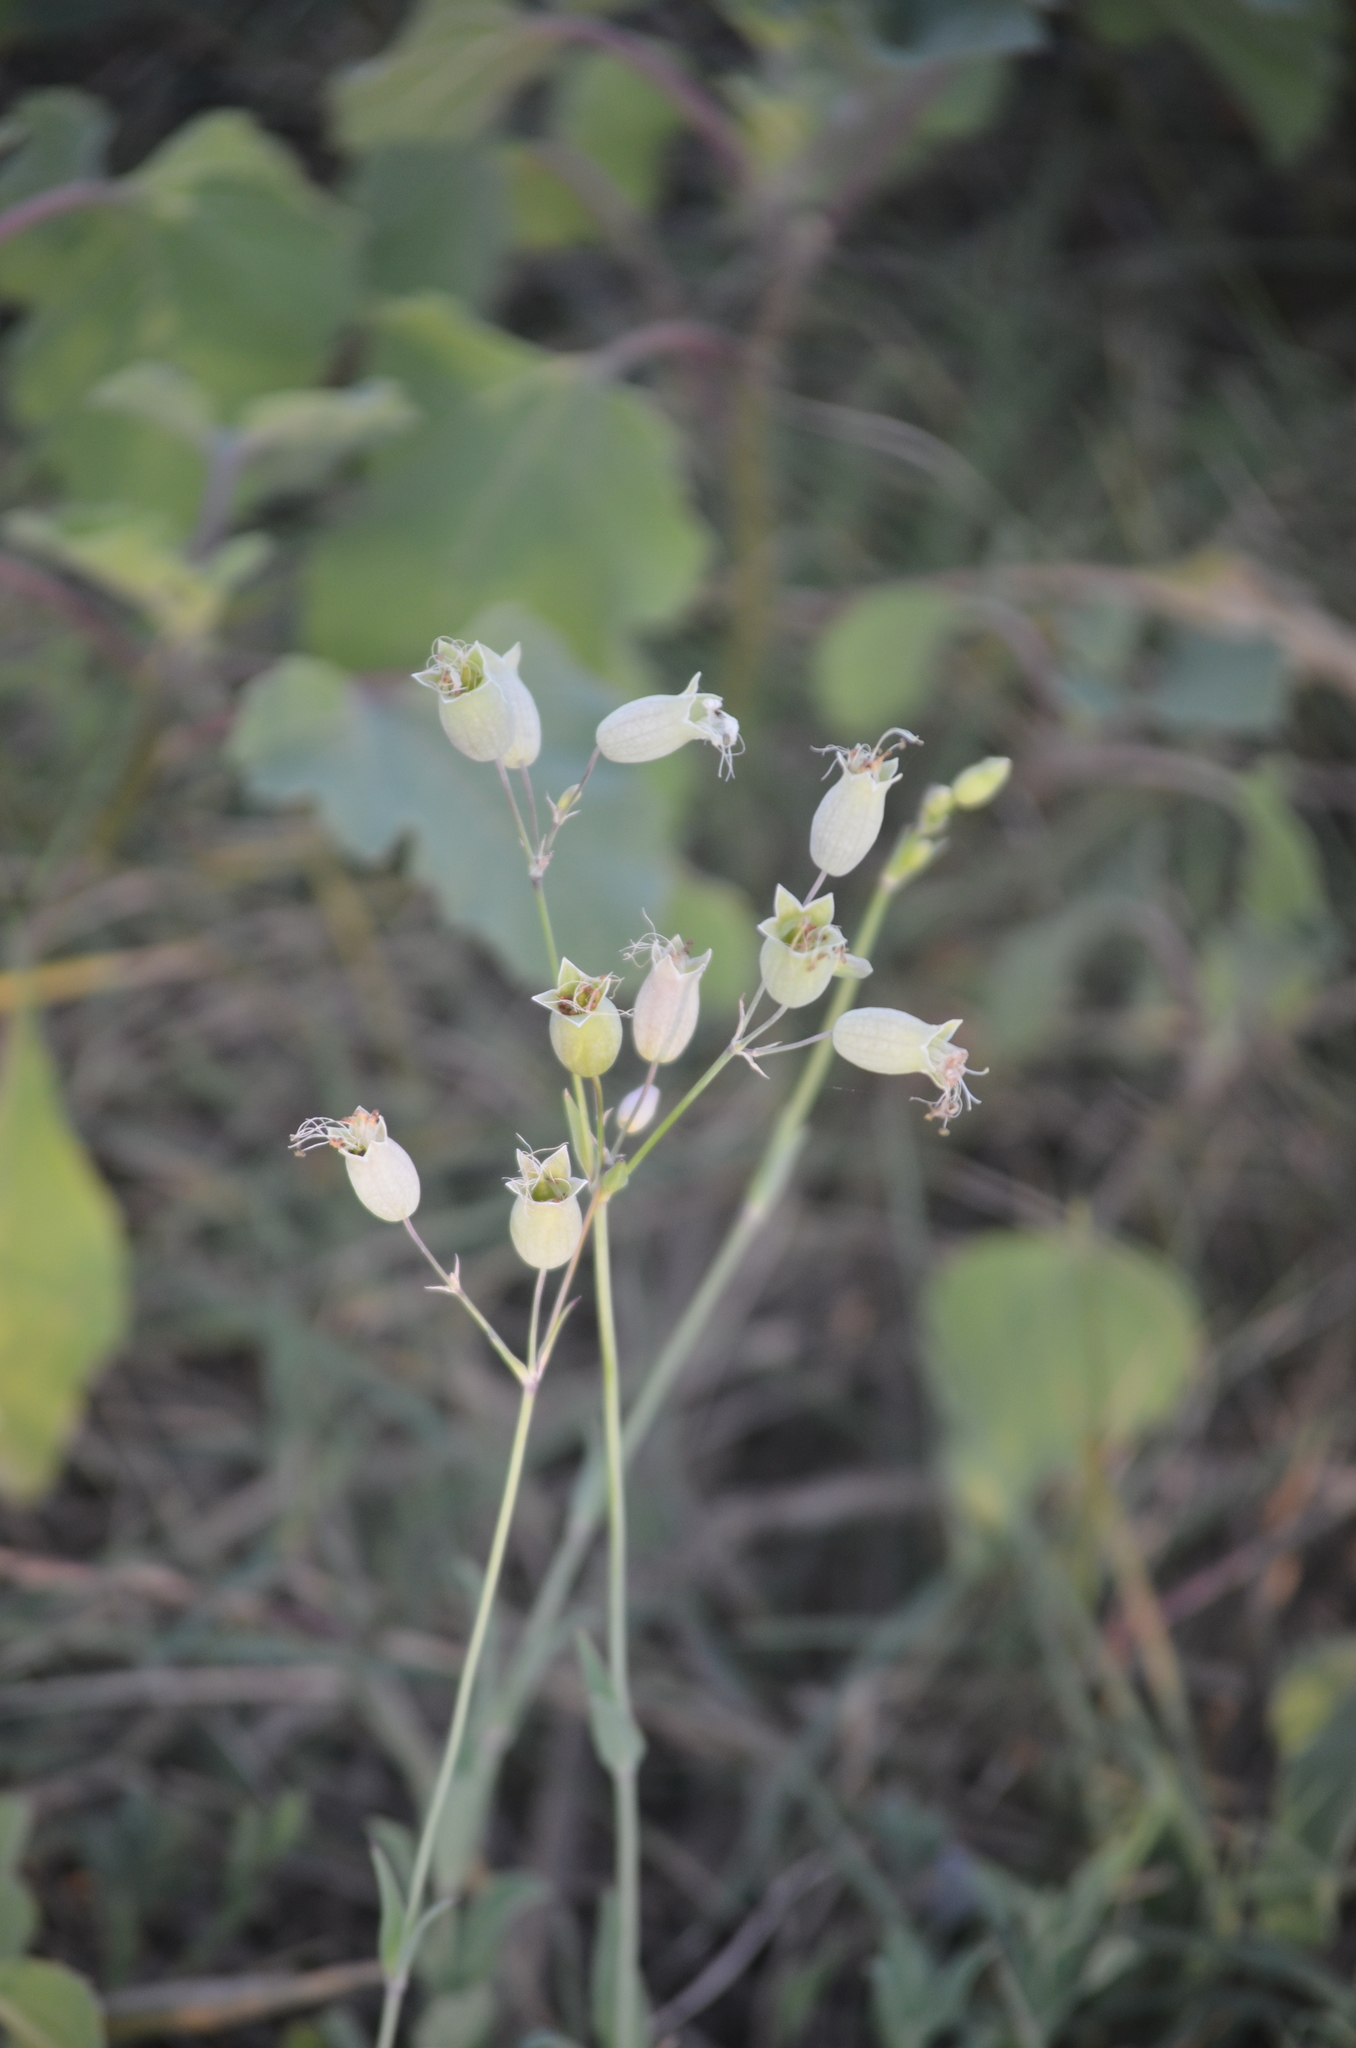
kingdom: Plantae
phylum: Tracheophyta
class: Magnoliopsida
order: Caryophyllales
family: Caryophyllaceae
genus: Silene
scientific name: Silene vulgaris
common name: Bladder campion
